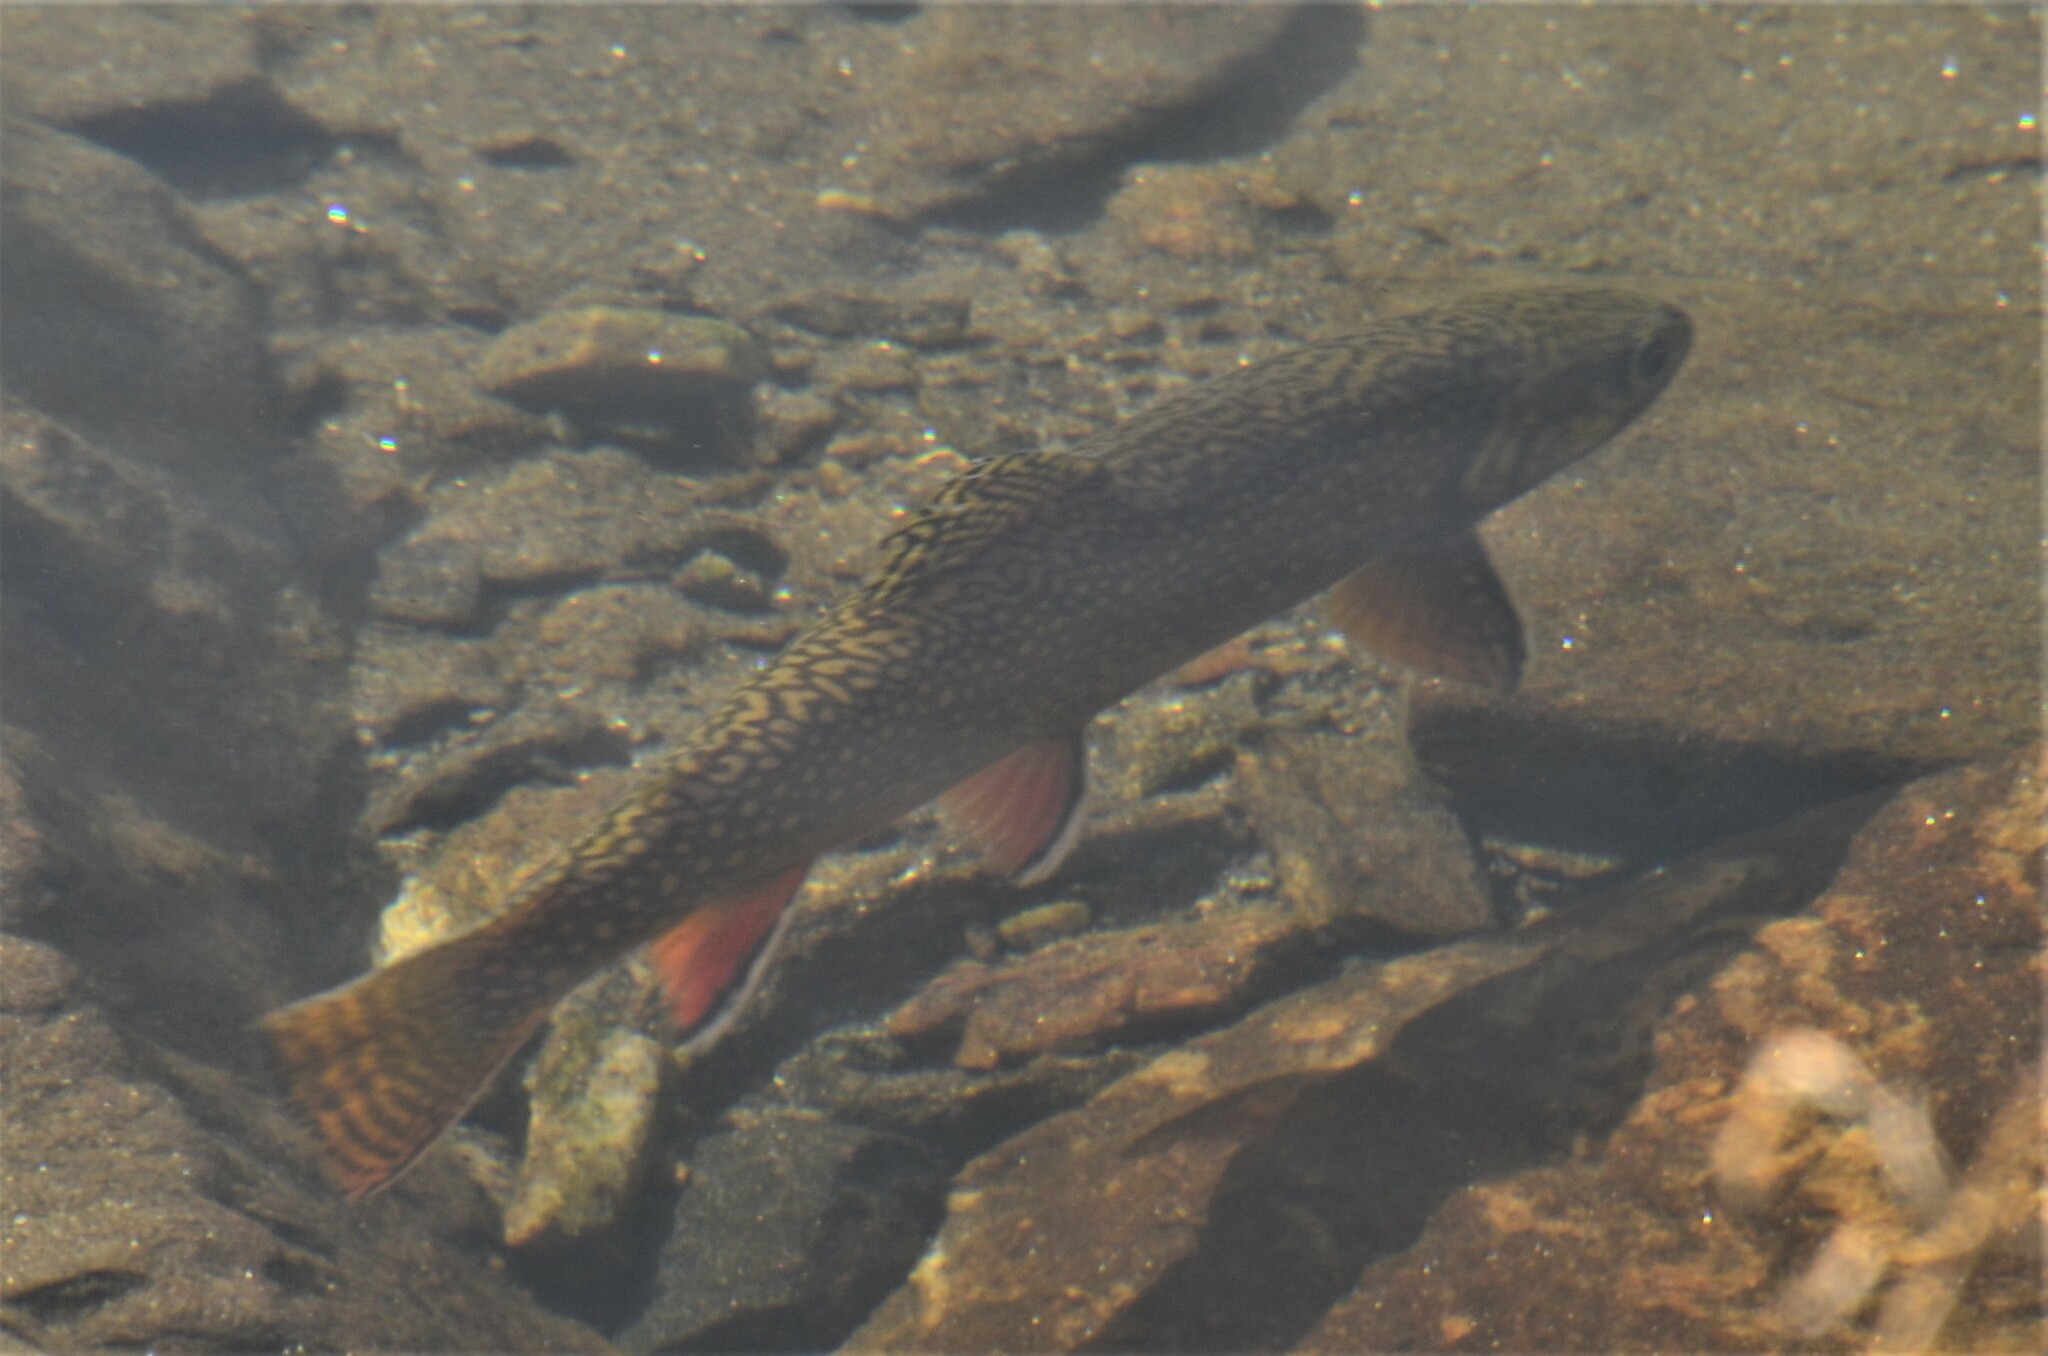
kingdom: Animalia
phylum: Chordata
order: Salmoniformes
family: Salmonidae
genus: Salvelinus
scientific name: Salvelinus fontinalis
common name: Brook trout
